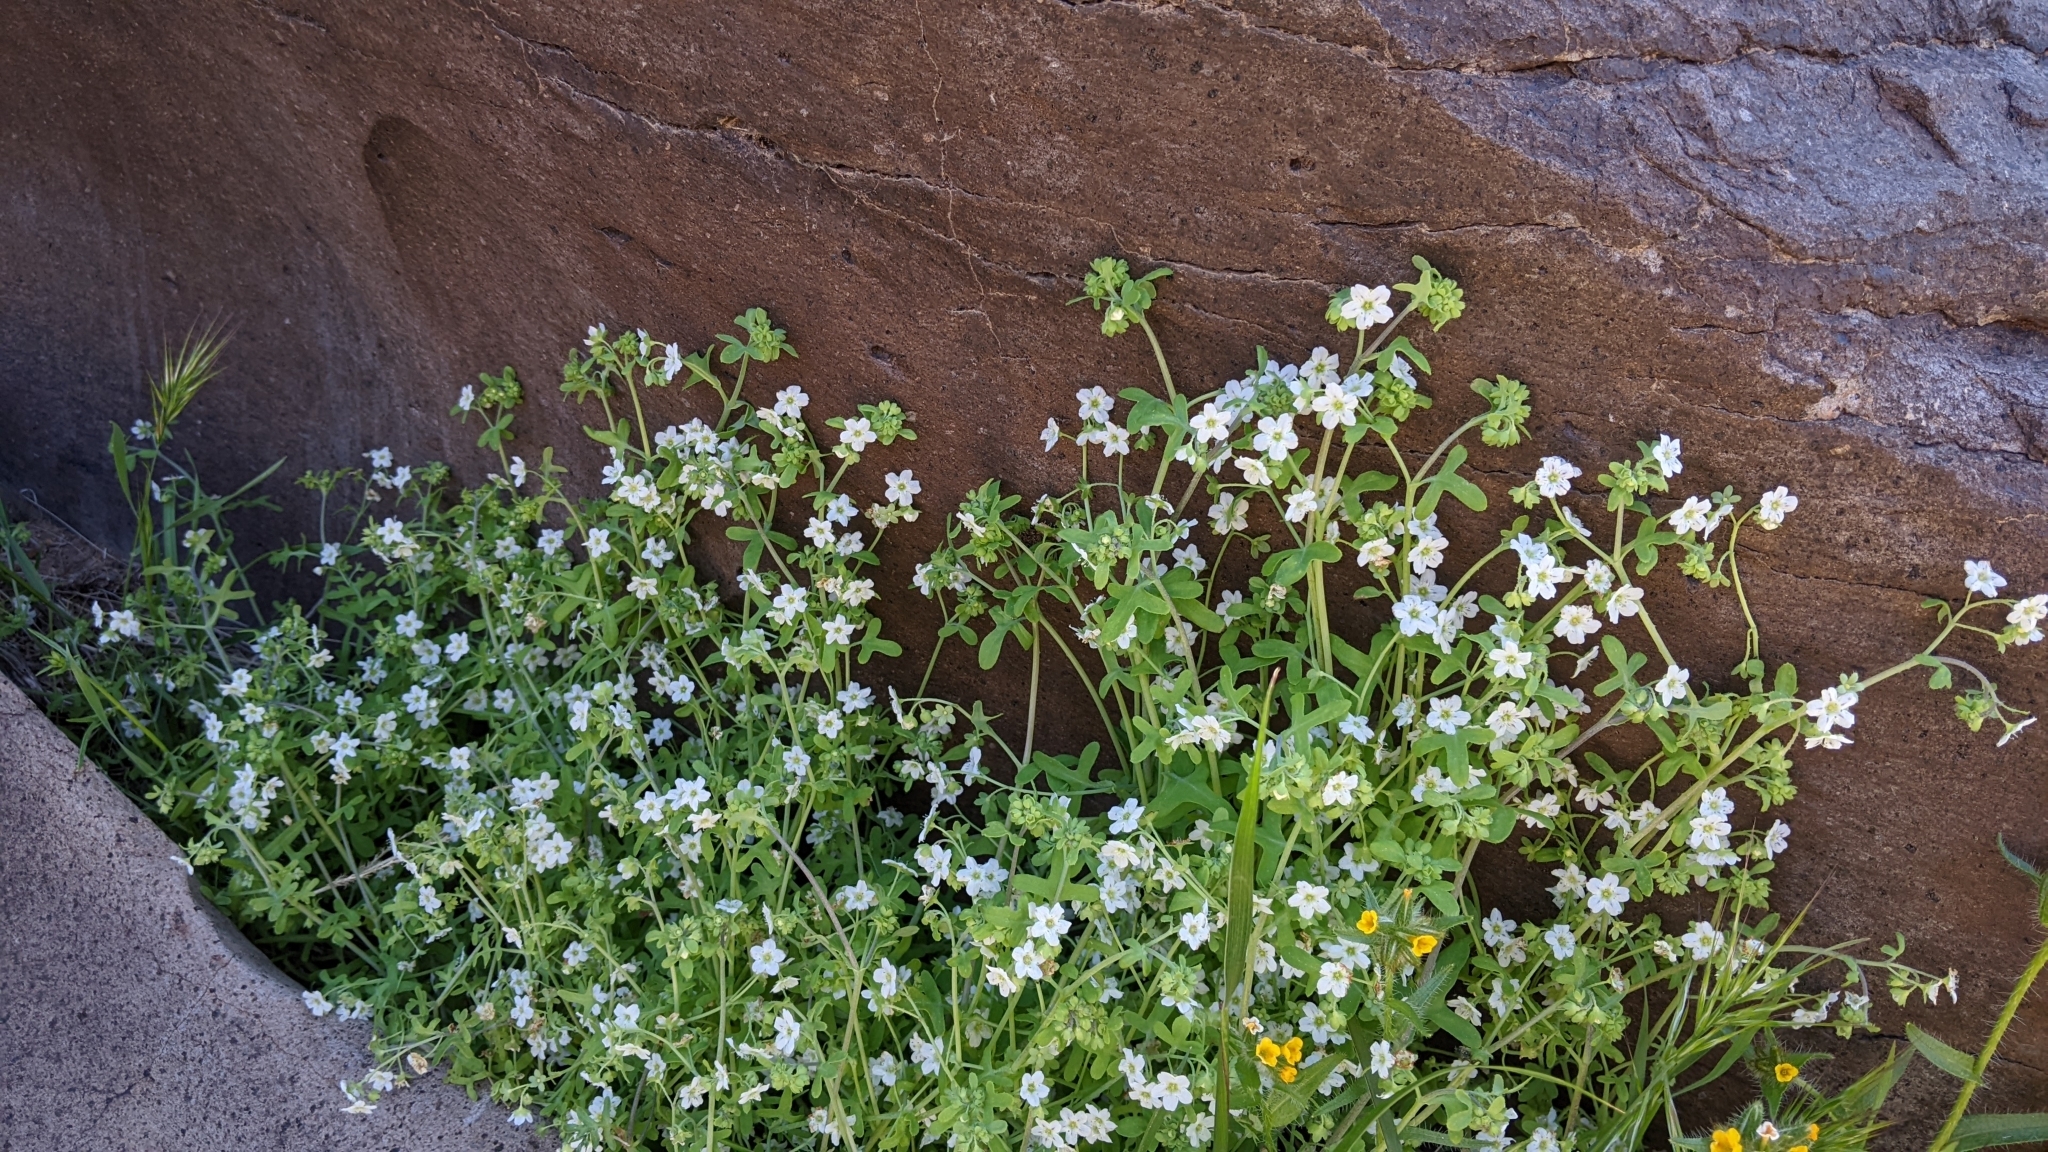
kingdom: Plantae
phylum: Tracheophyta
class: Magnoliopsida
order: Boraginales
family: Hydrophyllaceae
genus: Pholistoma
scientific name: Pholistoma membranaceum
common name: White fiesta-flower
